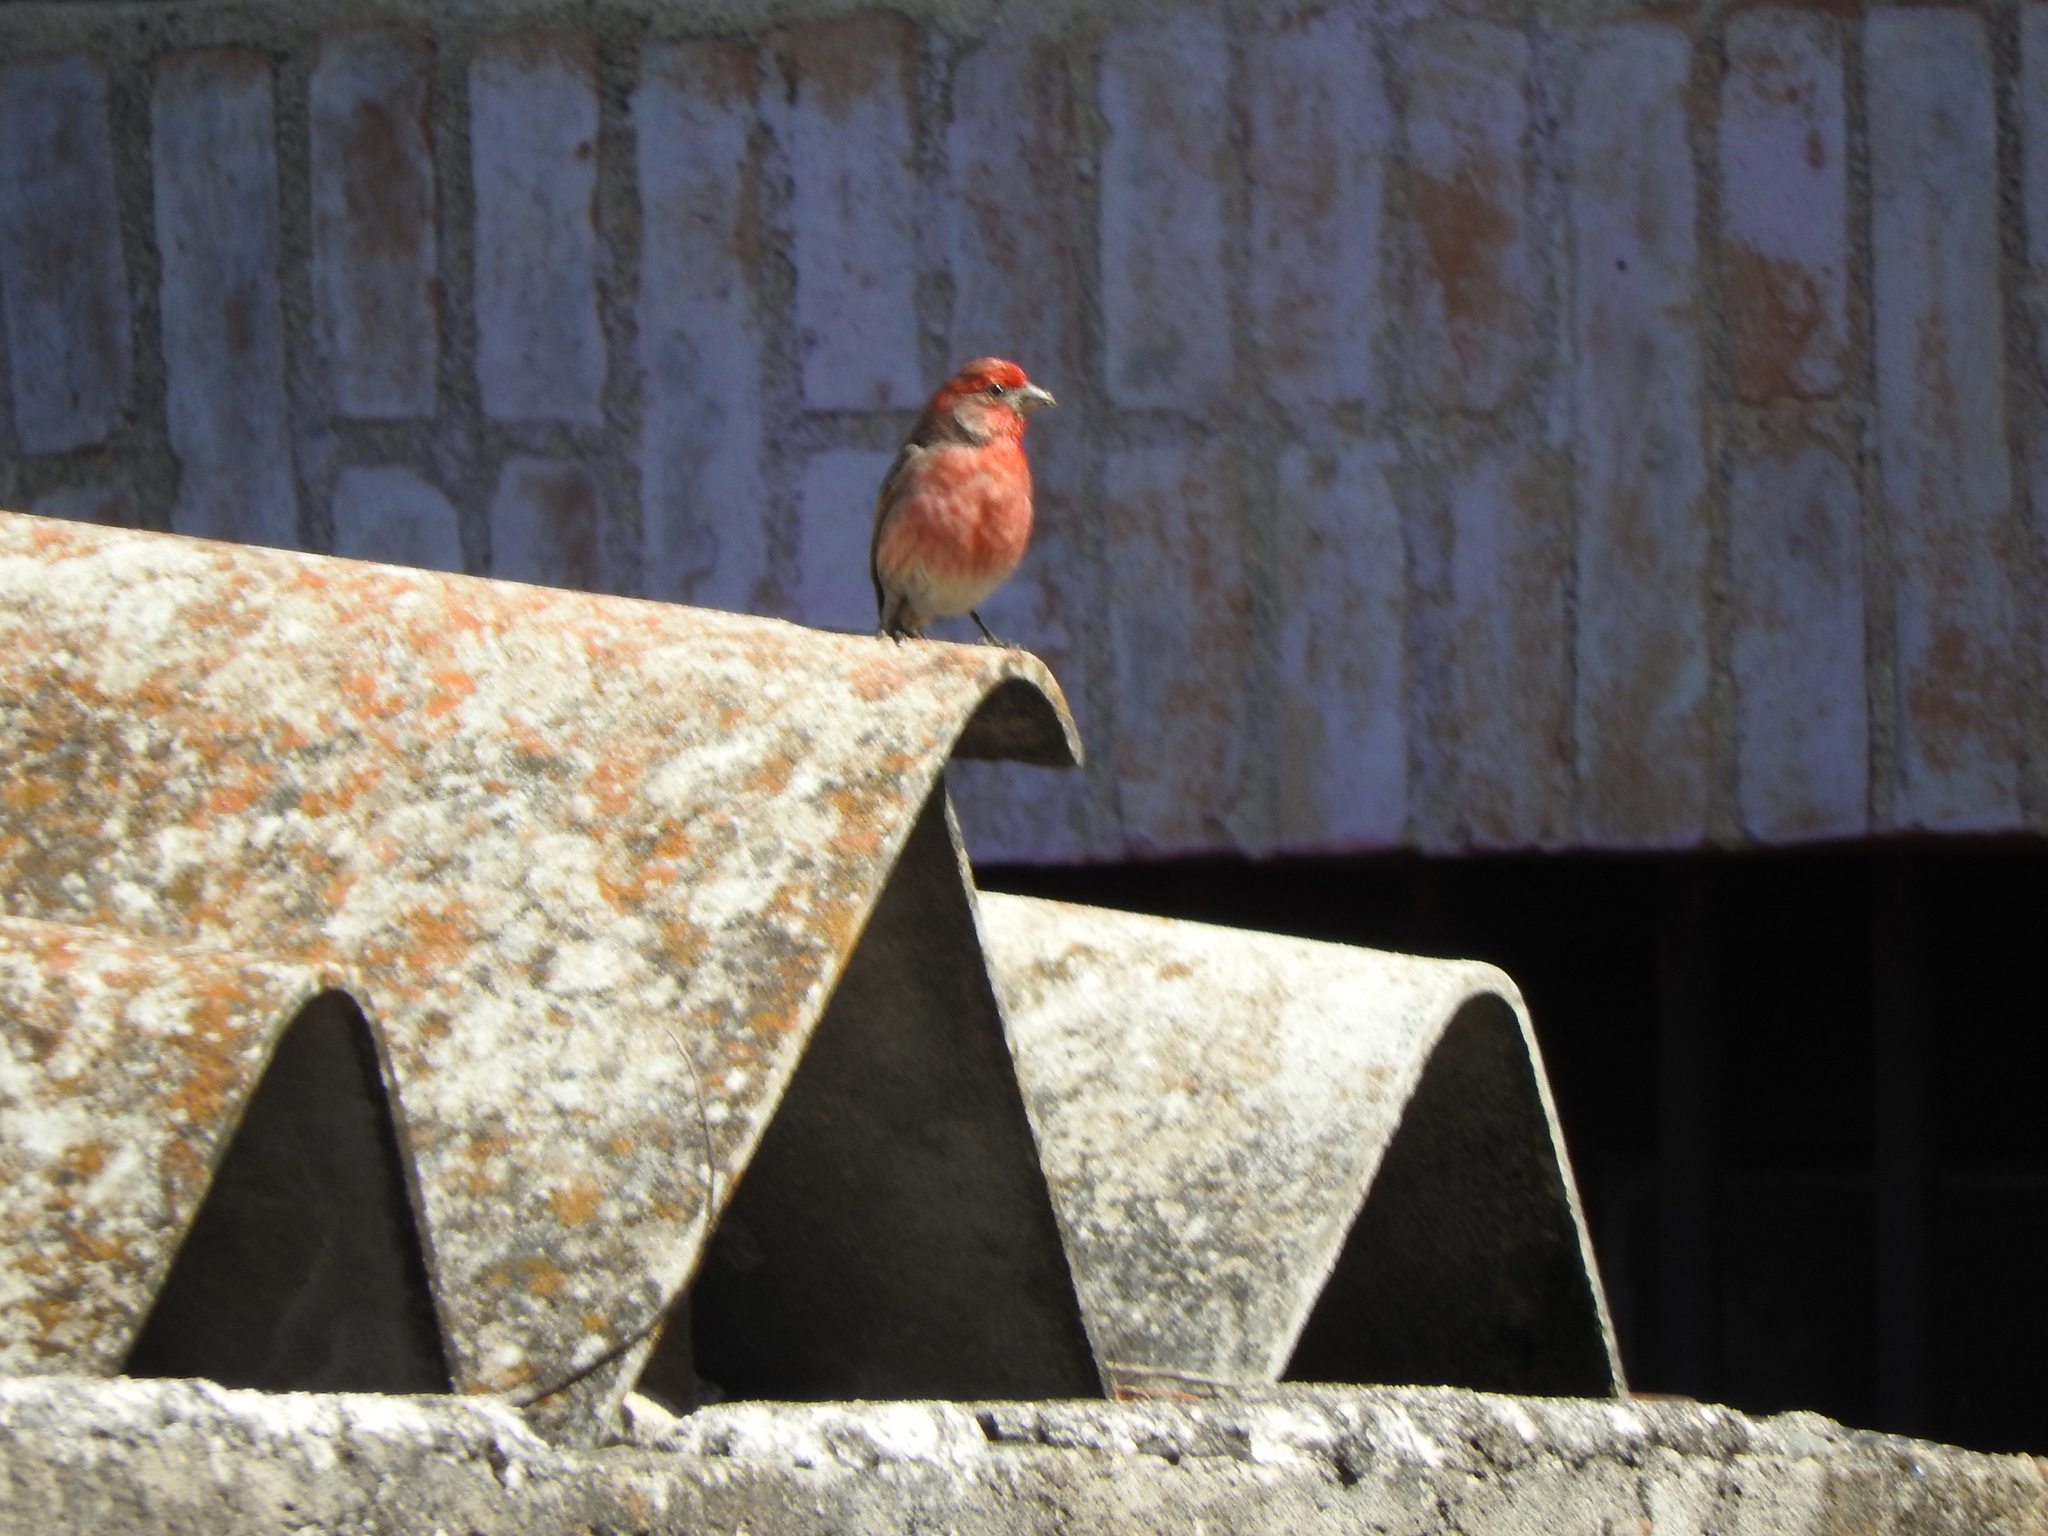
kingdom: Animalia
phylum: Chordata
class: Aves
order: Passeriformes
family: Fringillidae
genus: Haemorhous
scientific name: Haemorhous mexicanus
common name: House finch
